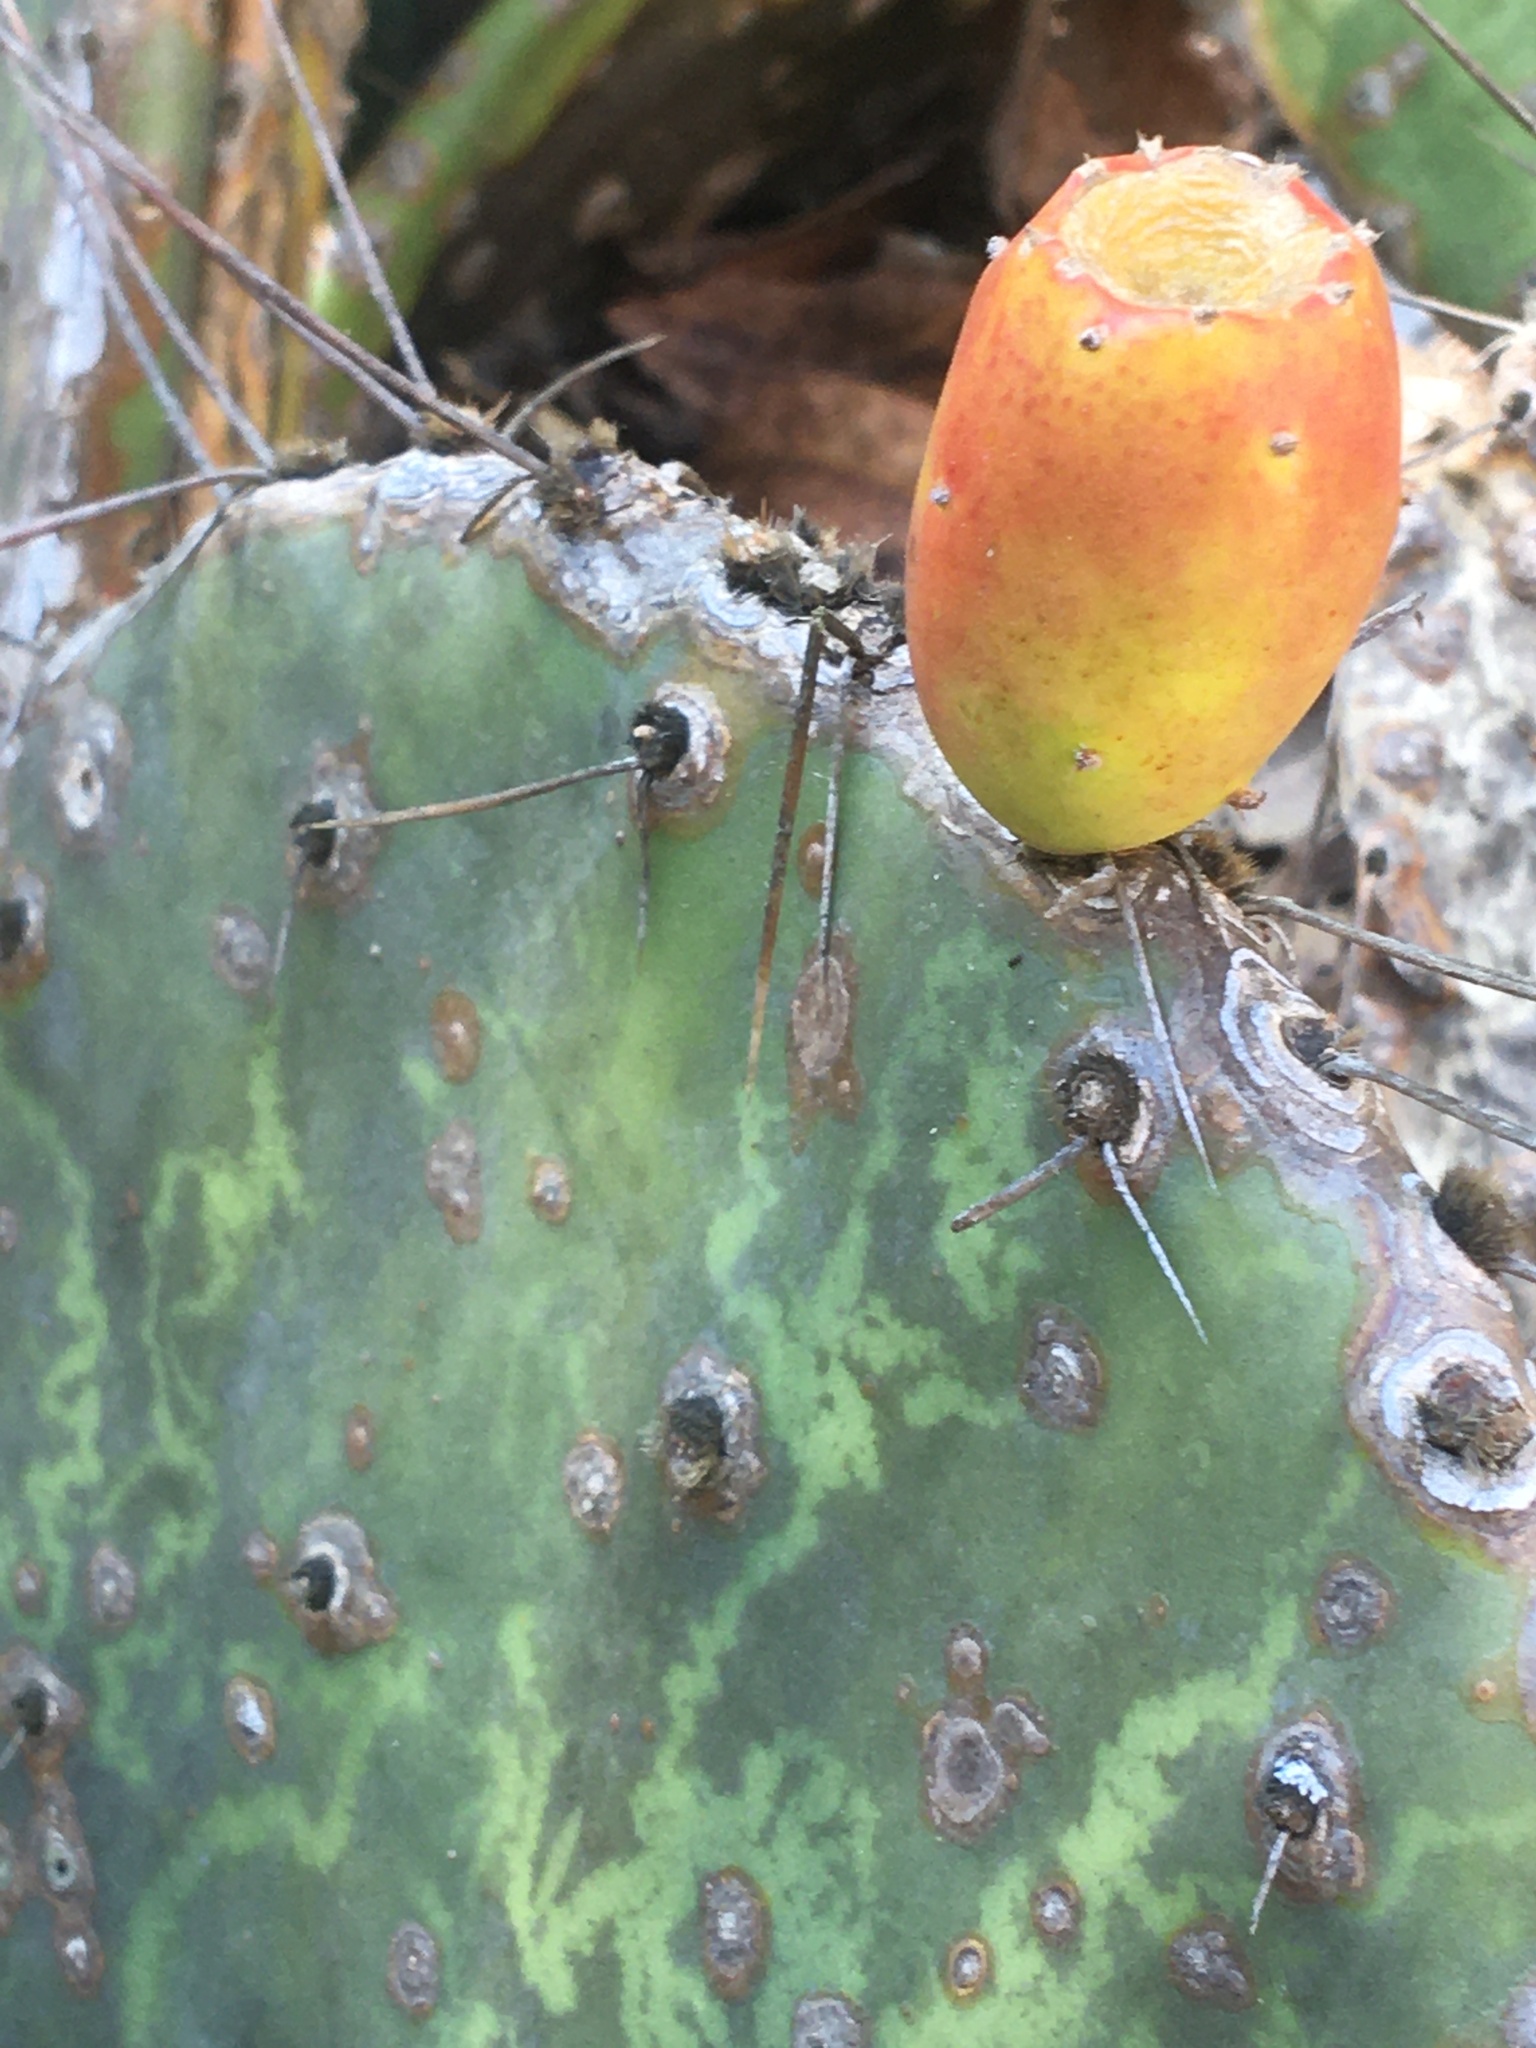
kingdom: Plantae
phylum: Tracheophyta
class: Magnoliopsida
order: Caryophyllales
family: Cactaceae
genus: Opuntia
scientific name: Opuntia humifusa
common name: Eastern prickly-pear
